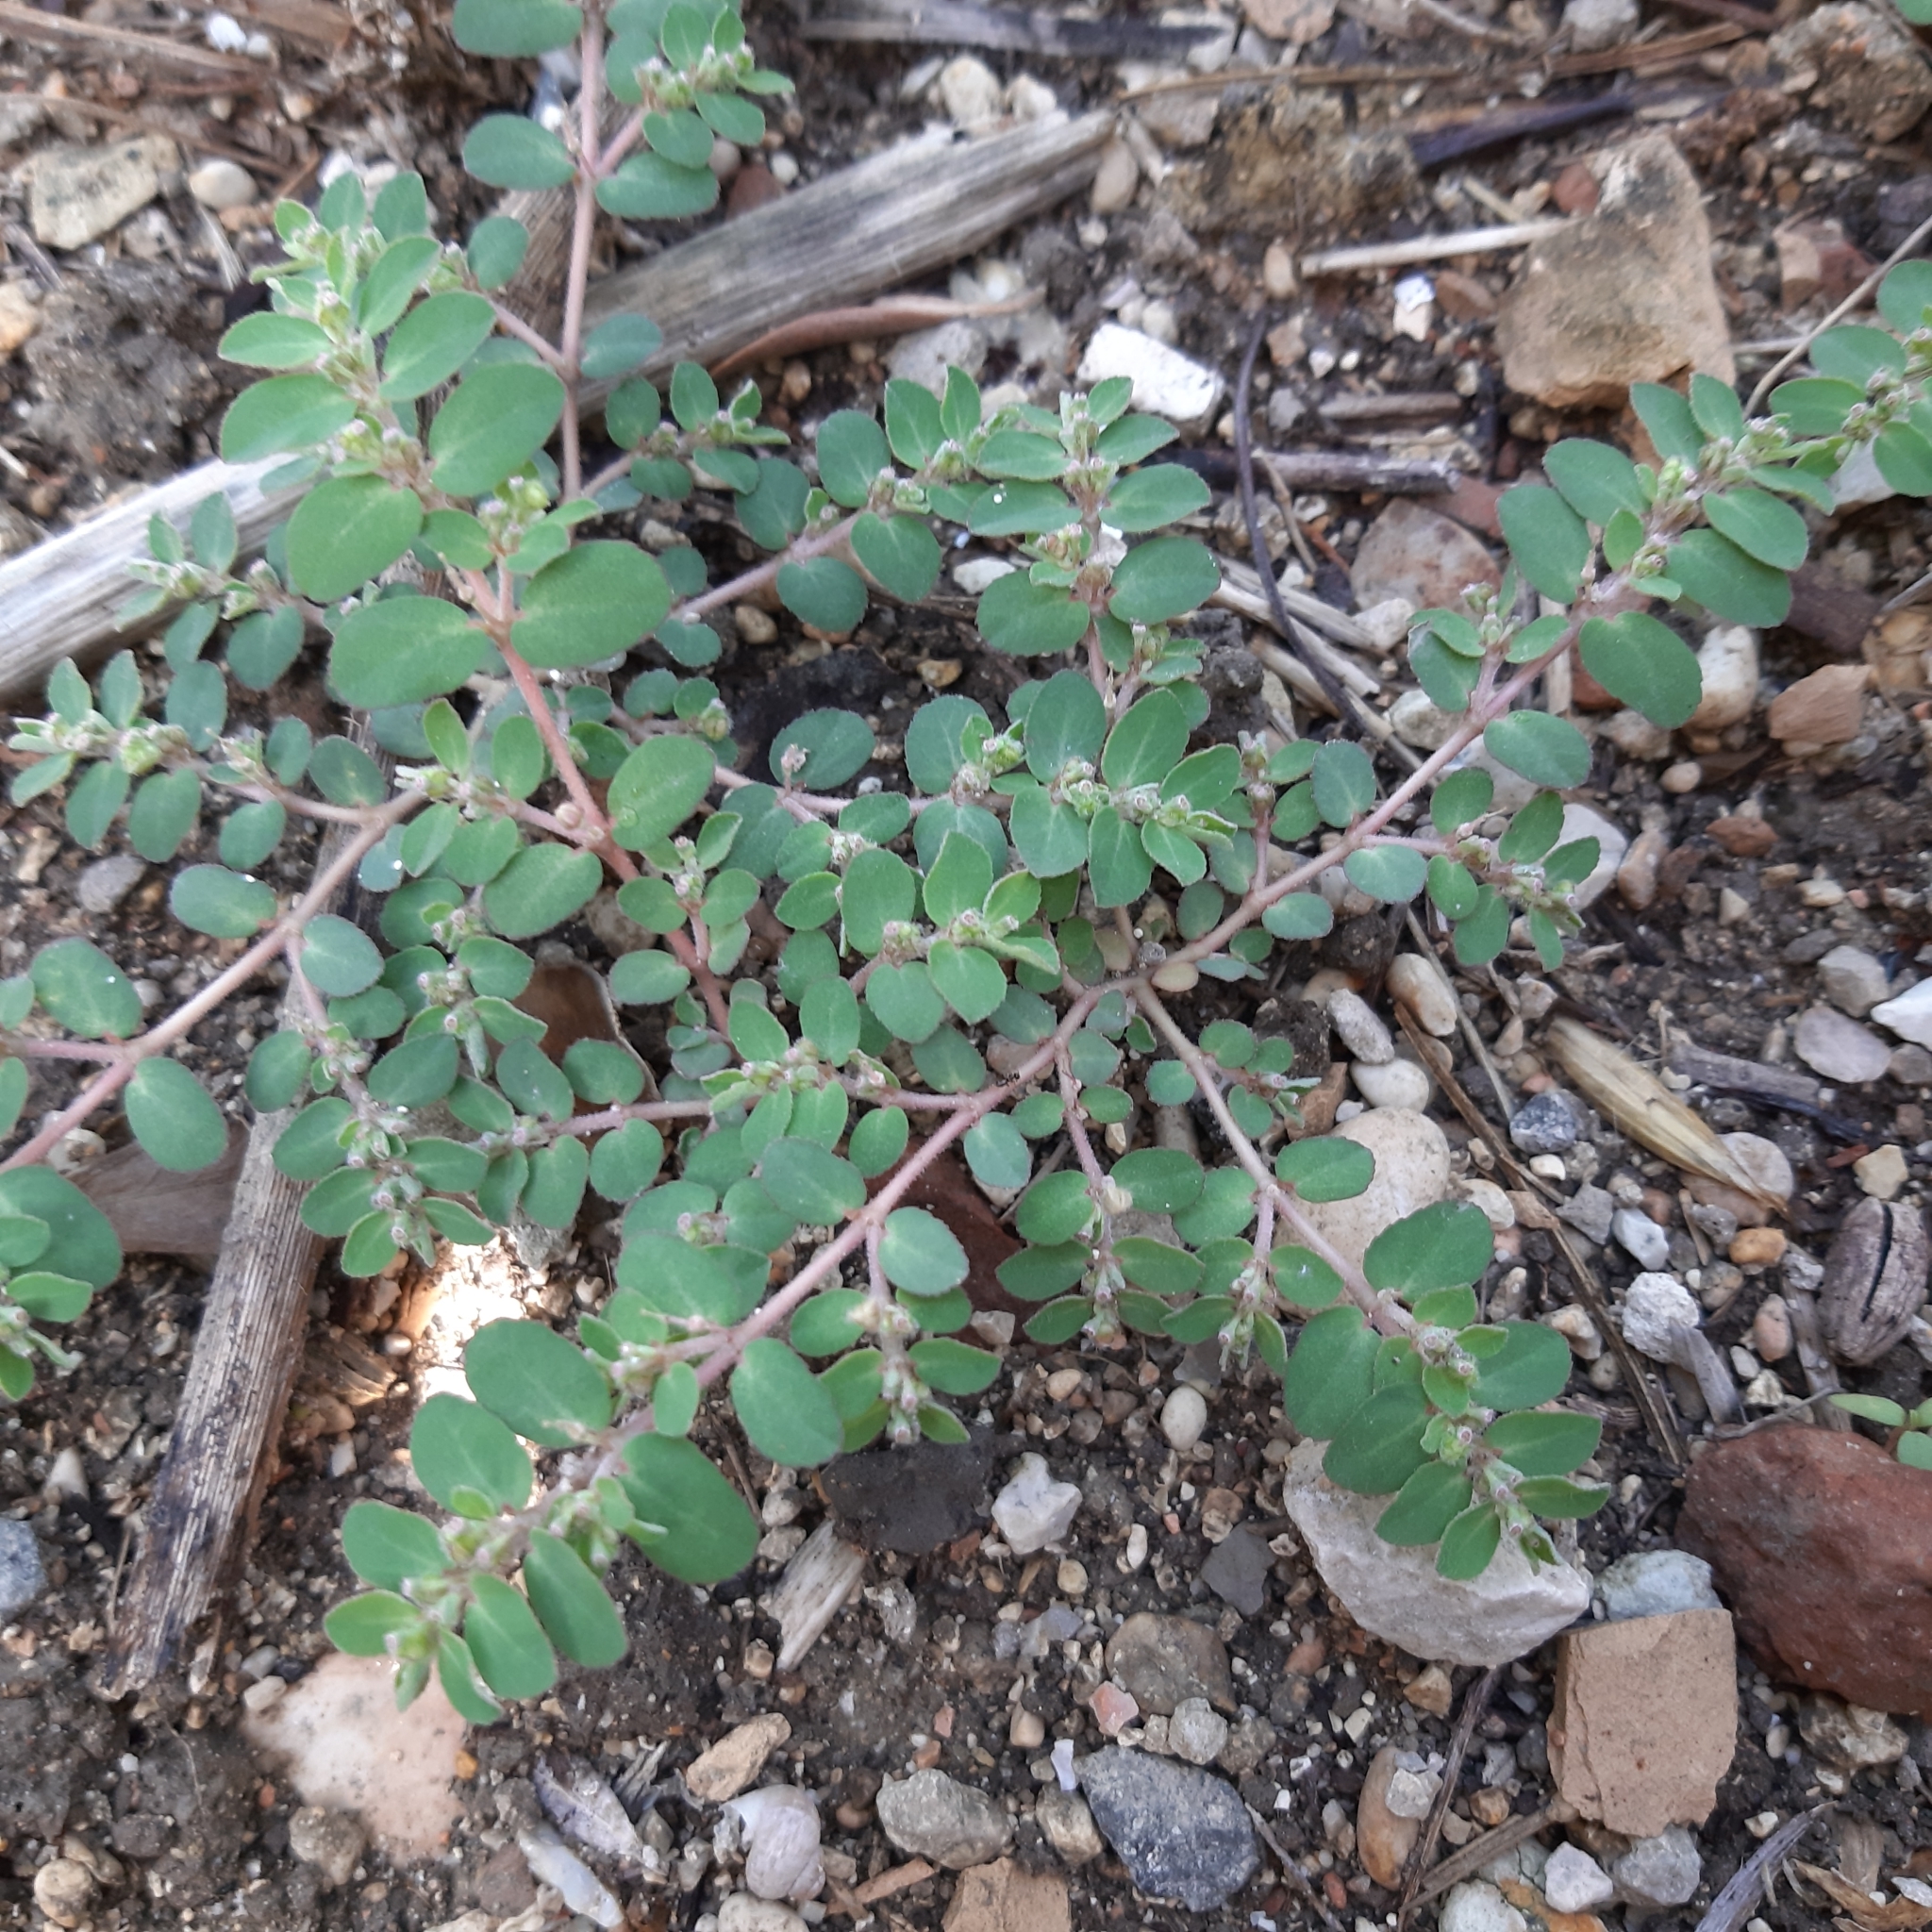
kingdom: Plantae
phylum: Tracheophyta
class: Magnoliopsida
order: Malpighiales
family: Euphorbiaceae
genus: Euphorbia
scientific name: Euphorbia prostrata
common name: Prostrate sandmat
